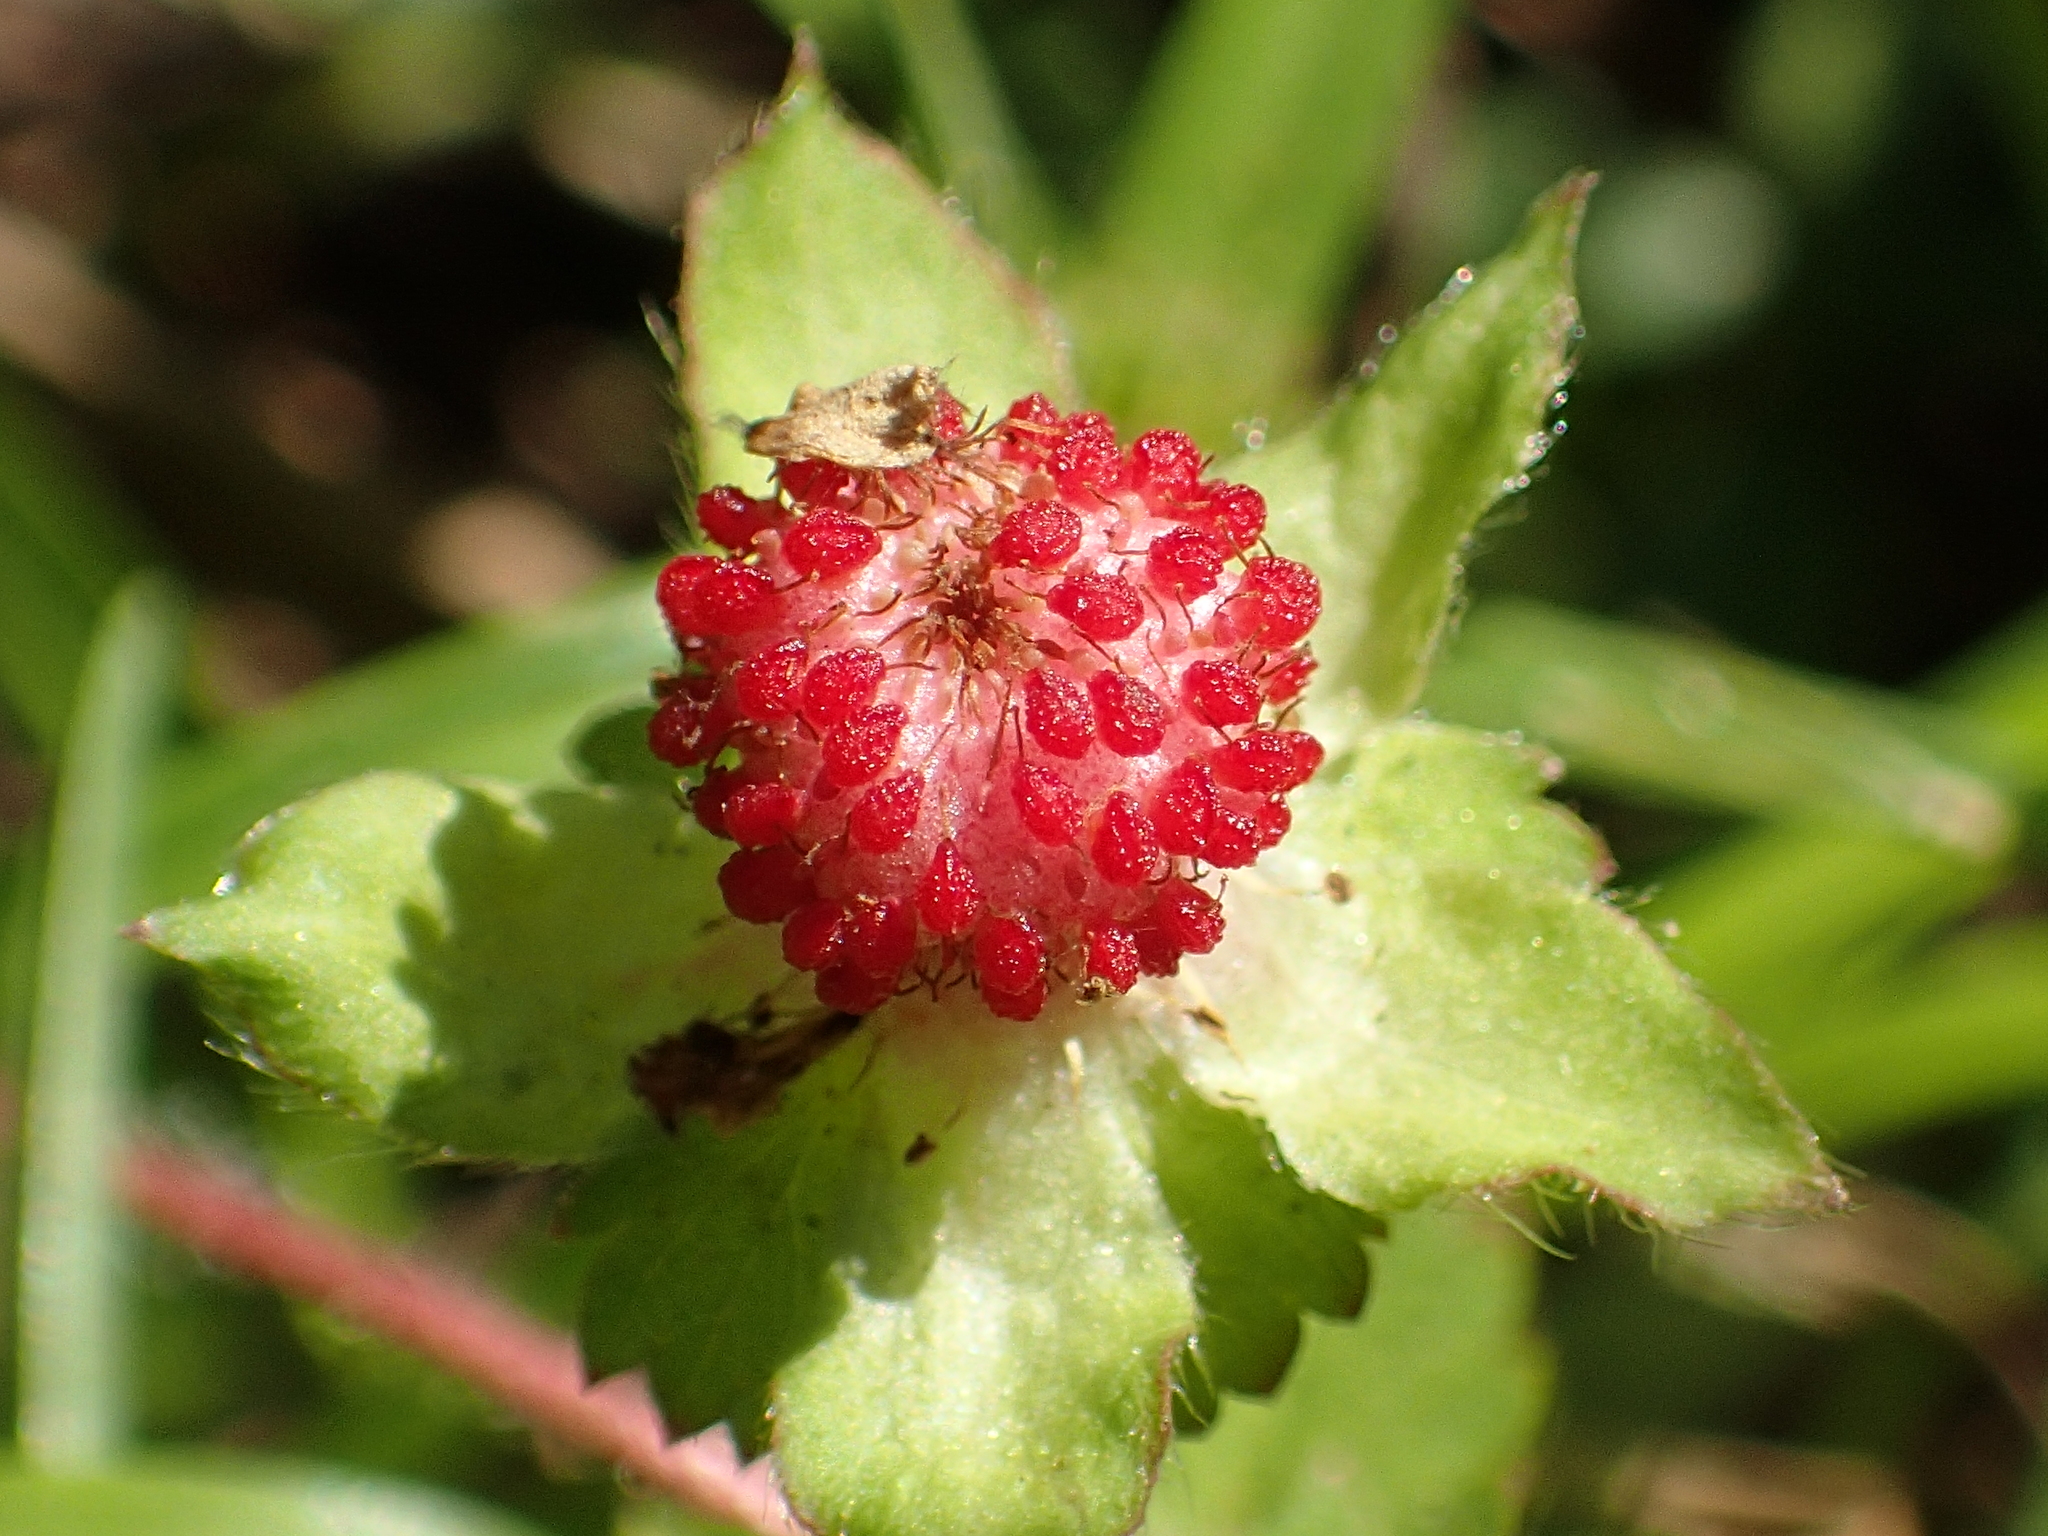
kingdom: Plantae
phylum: Tracheophyta
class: Magnoliopsida
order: Rosales
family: Rosaceae
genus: Potentilla
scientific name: Potentilla wallichiana
